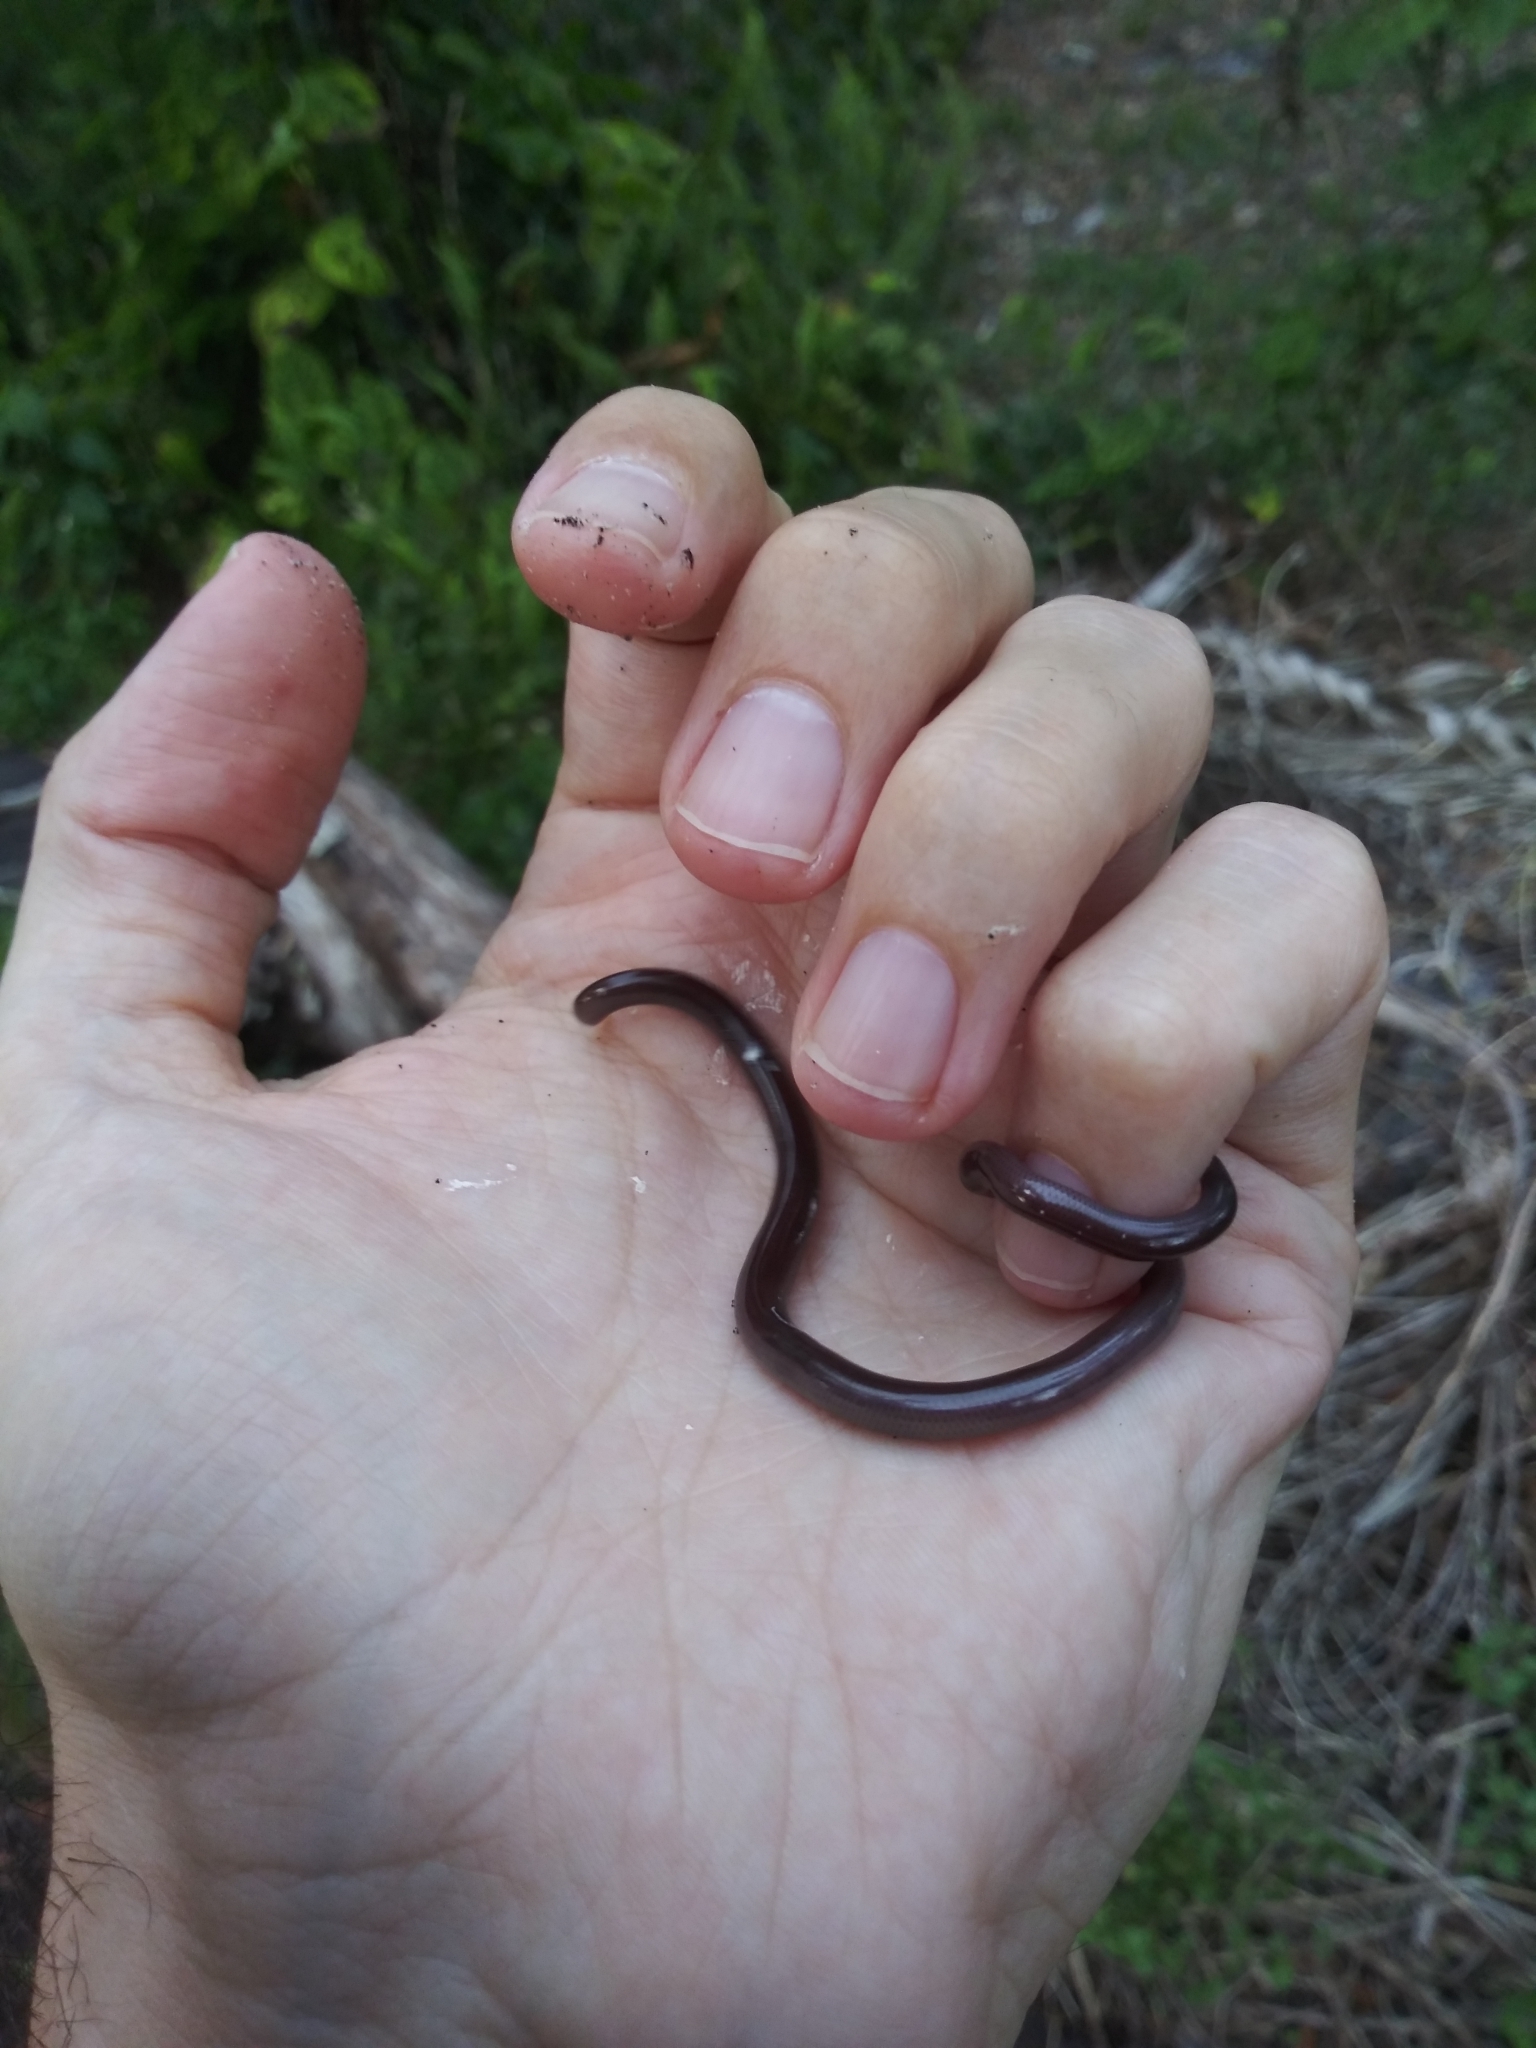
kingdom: Animalia
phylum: Chordata
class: Squamata
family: Typhlopidae
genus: Indotyphlops
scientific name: Indotyphlops braminus
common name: Brahminy blindsnake
